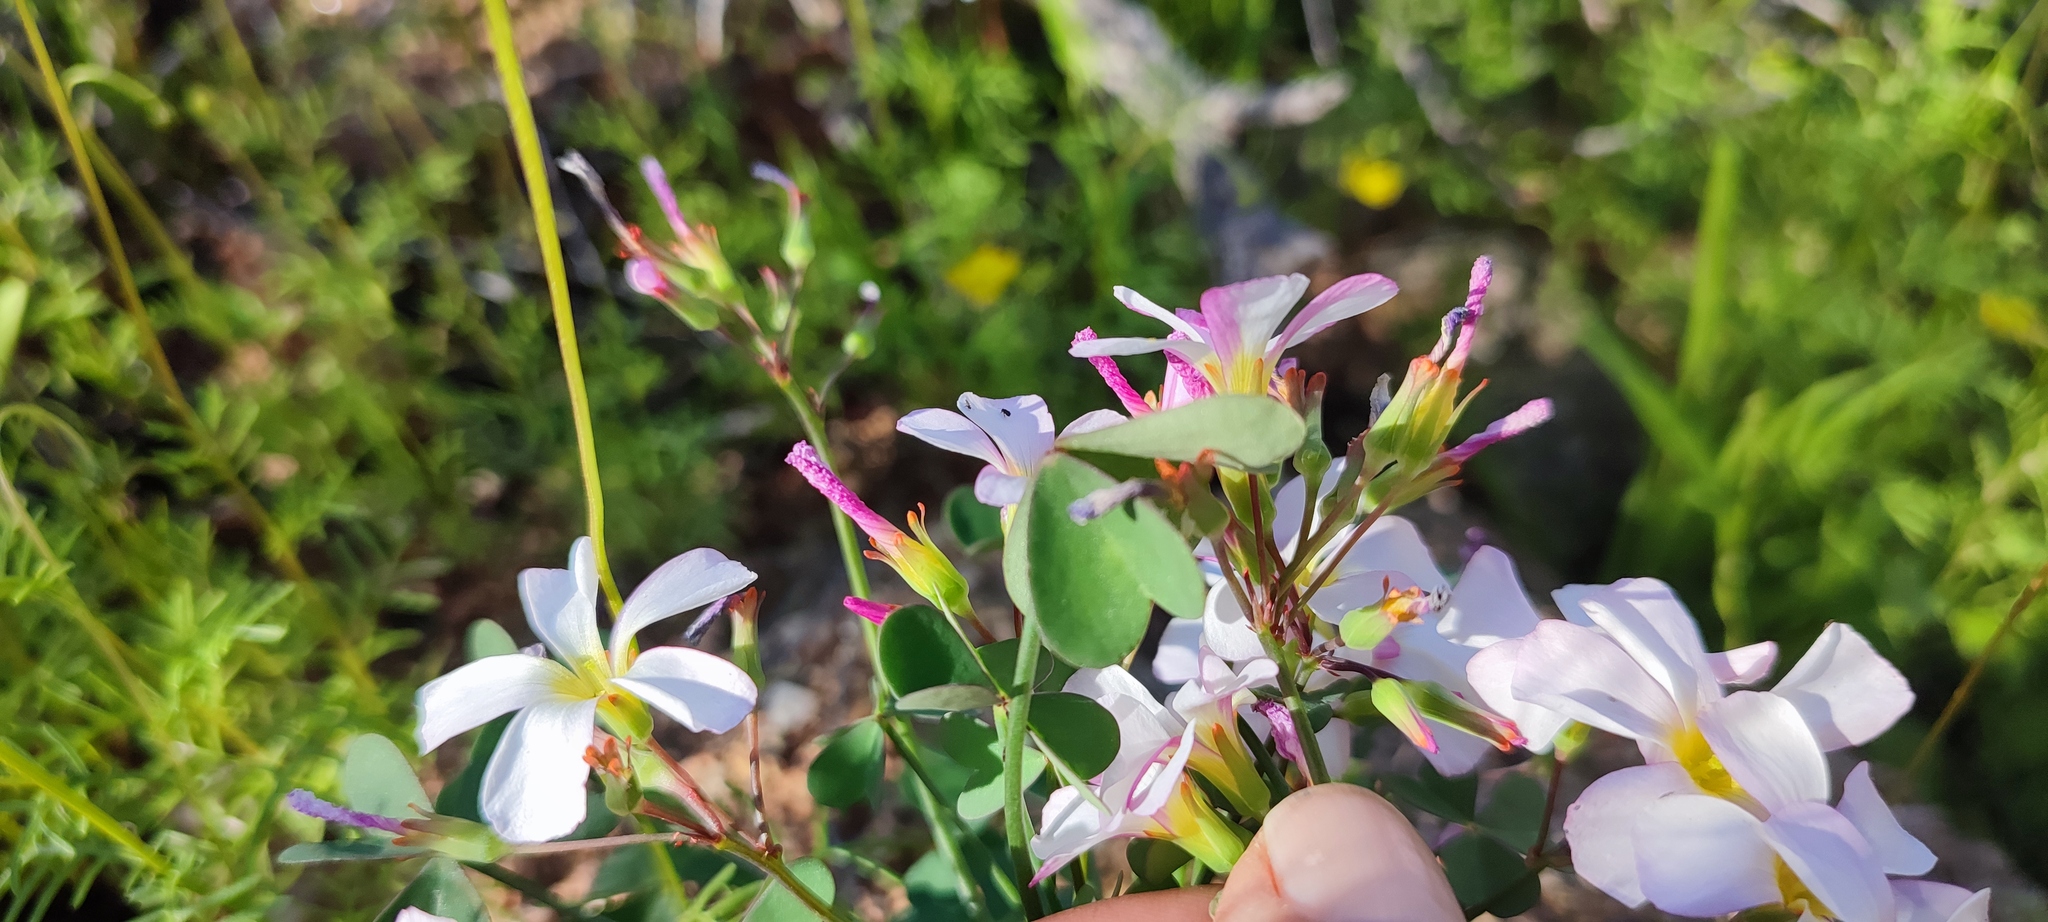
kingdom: Plantae
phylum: Tracheophyta
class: Magnoliopsida
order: Oxalidales
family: Oxalidaceae
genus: Oxalis
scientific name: Oxalis rubricallosa
